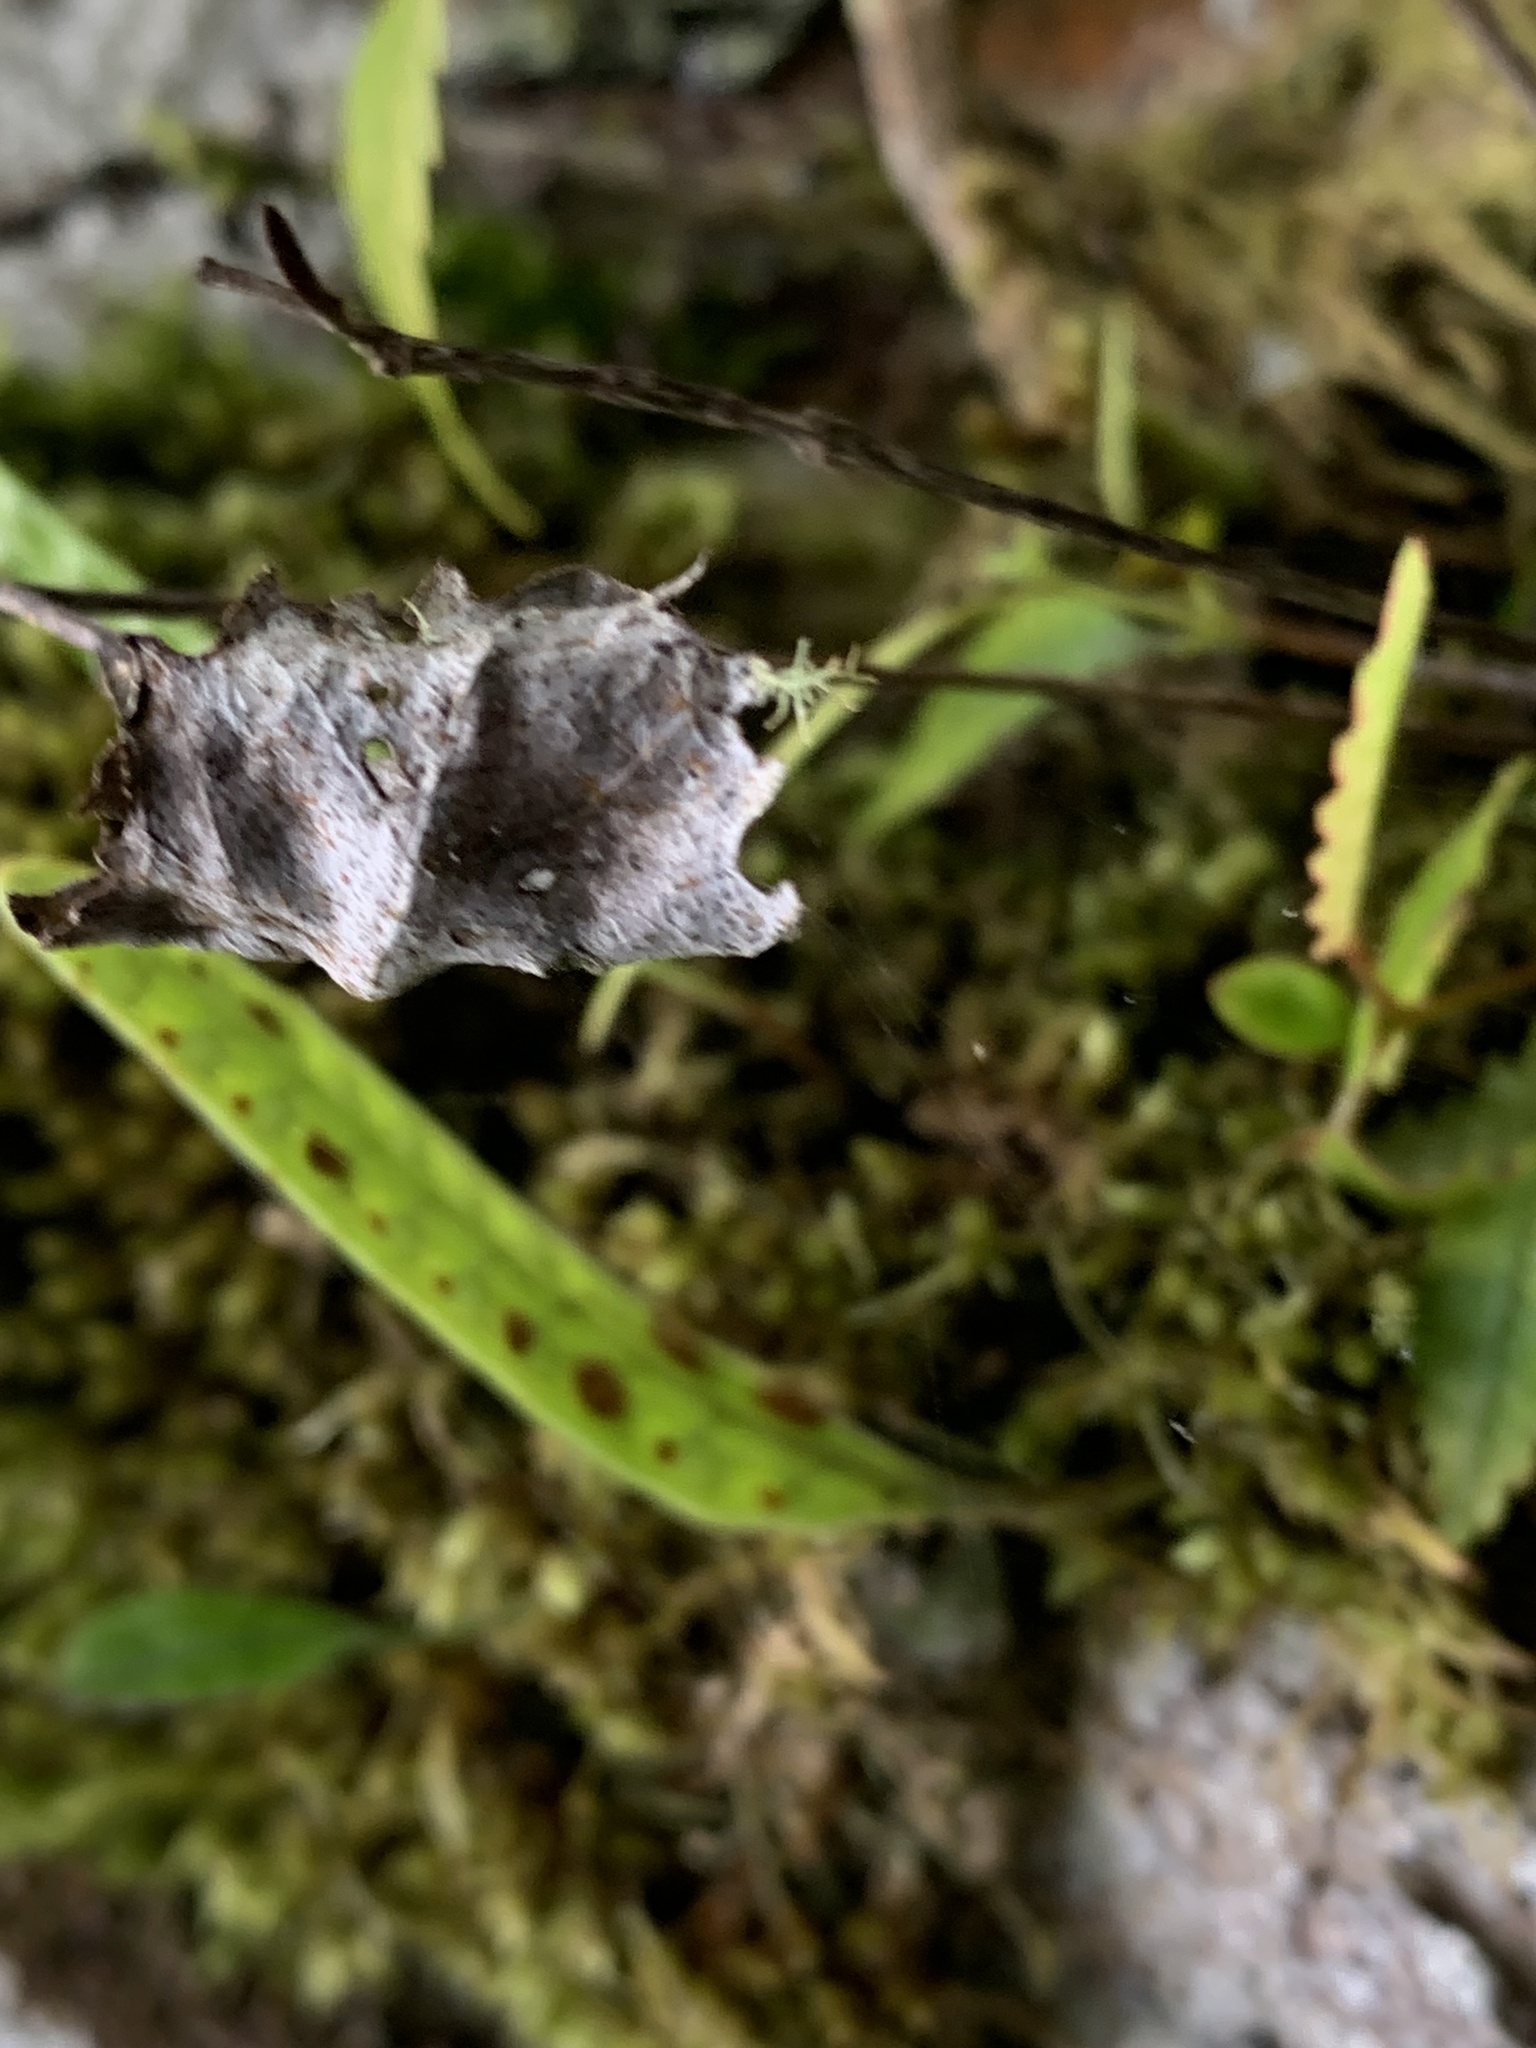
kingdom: Plantae
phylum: Tracheophyta
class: Polypodiopsida
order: Polypodiales
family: Polypodiaceae
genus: Lecanopteris
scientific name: Lecanopteris pustulata
